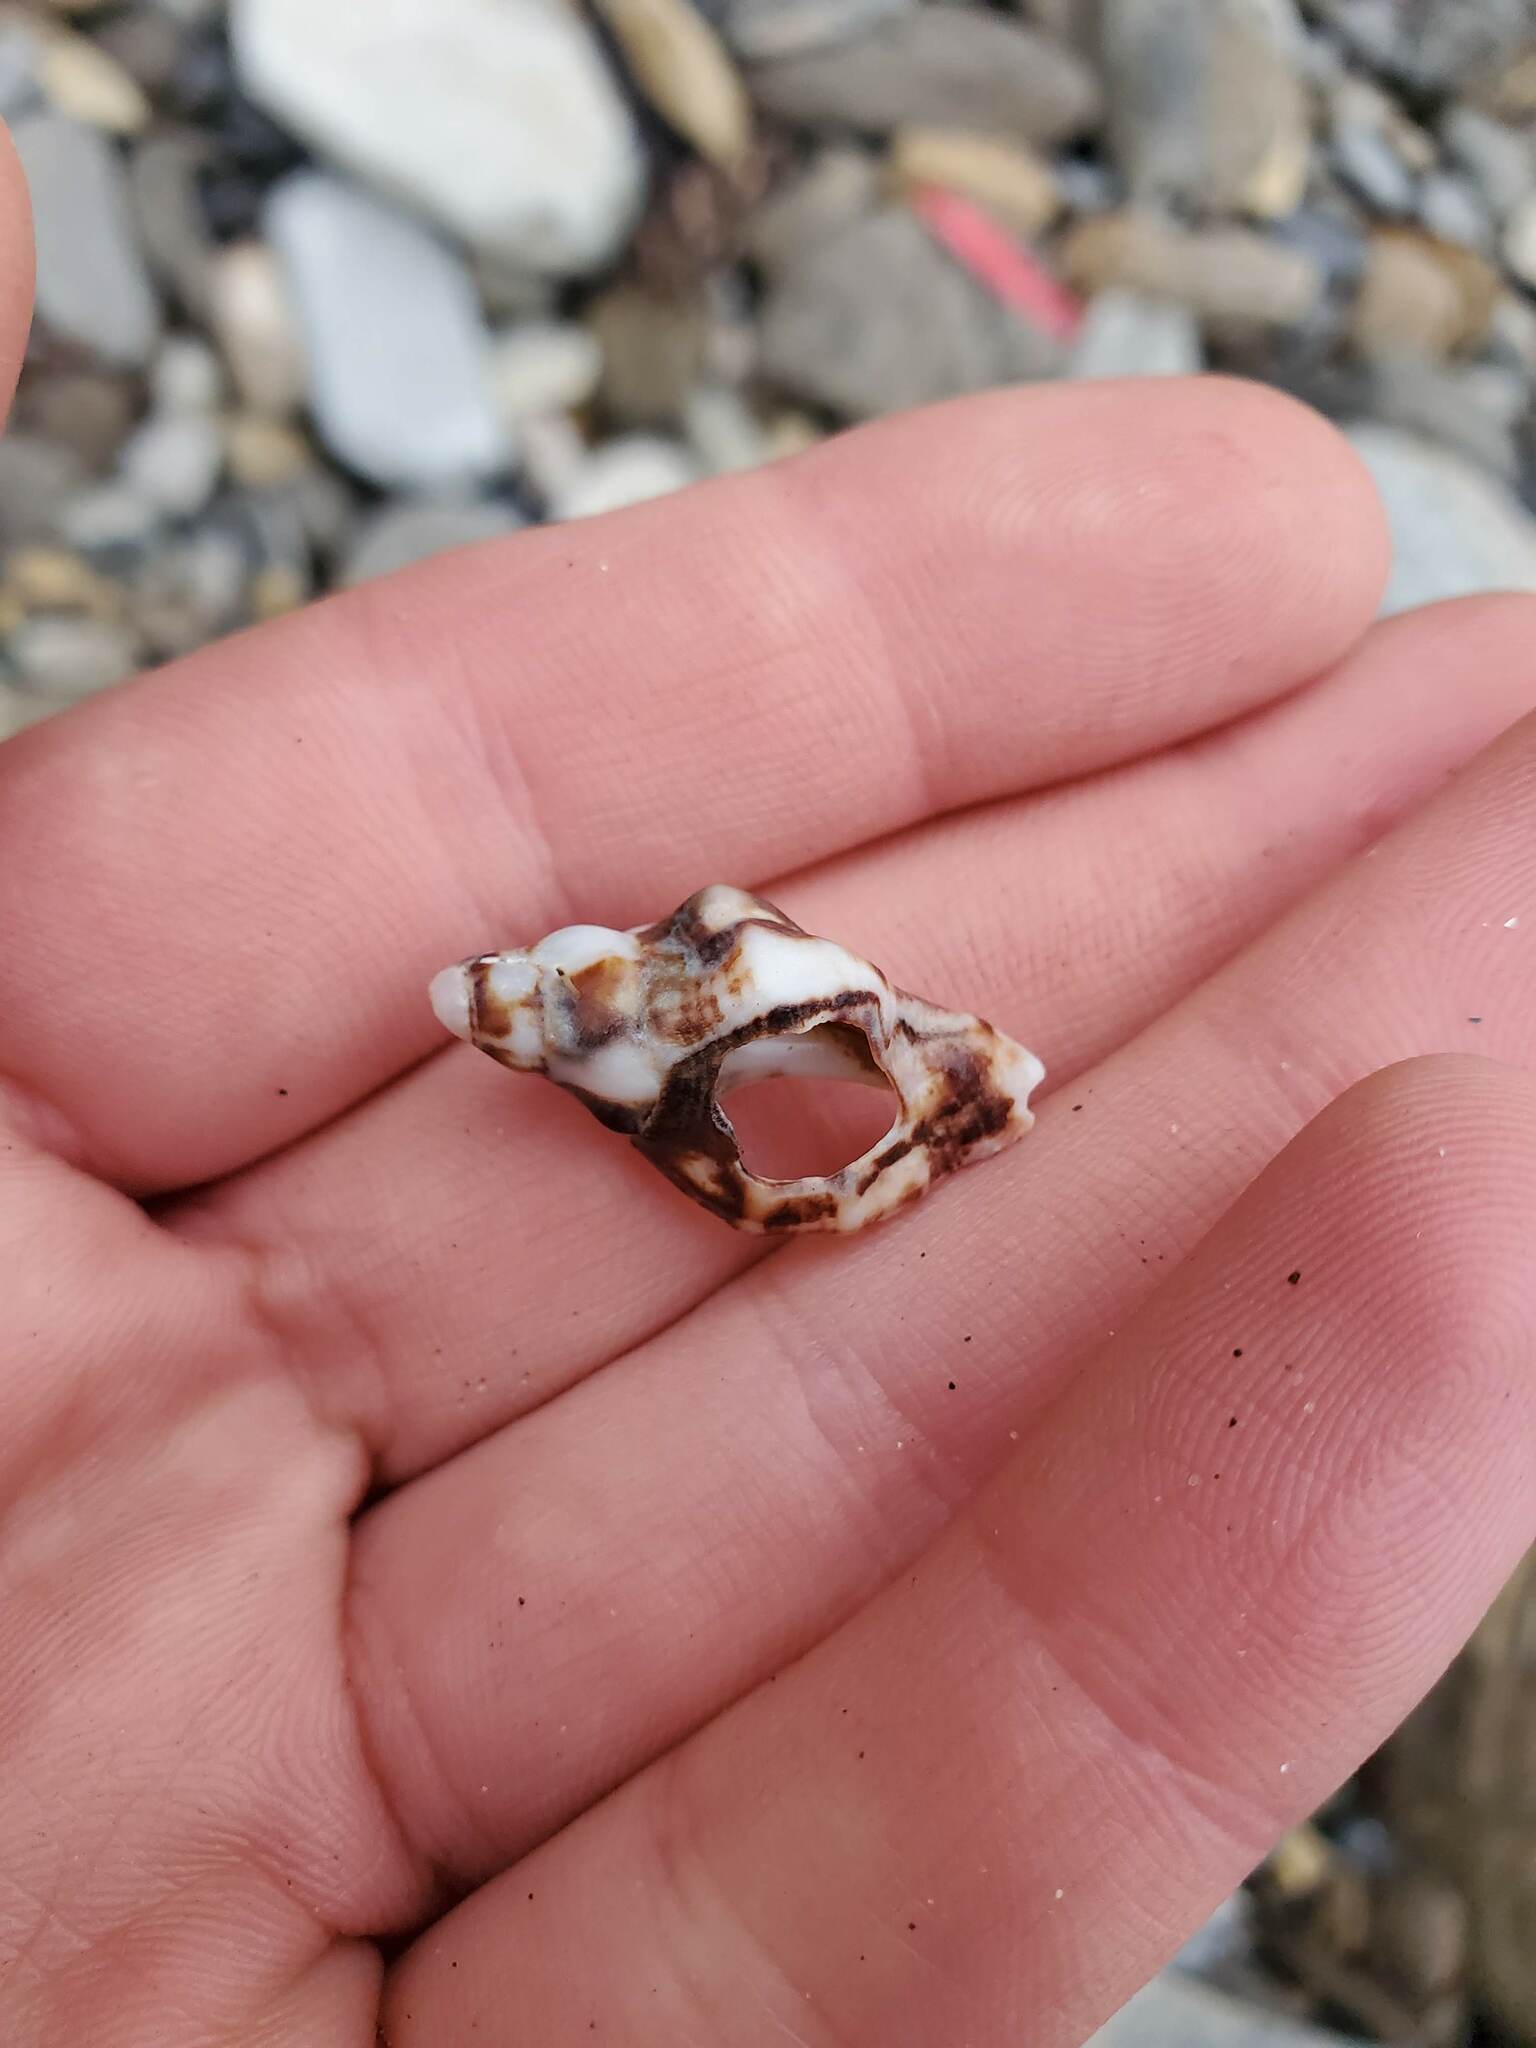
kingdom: Animalia
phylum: Mollusca
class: Gastropoda
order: Neogastropoda
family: Muricidae
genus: Ceratostoma
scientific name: Ceratostoma nuttalli
